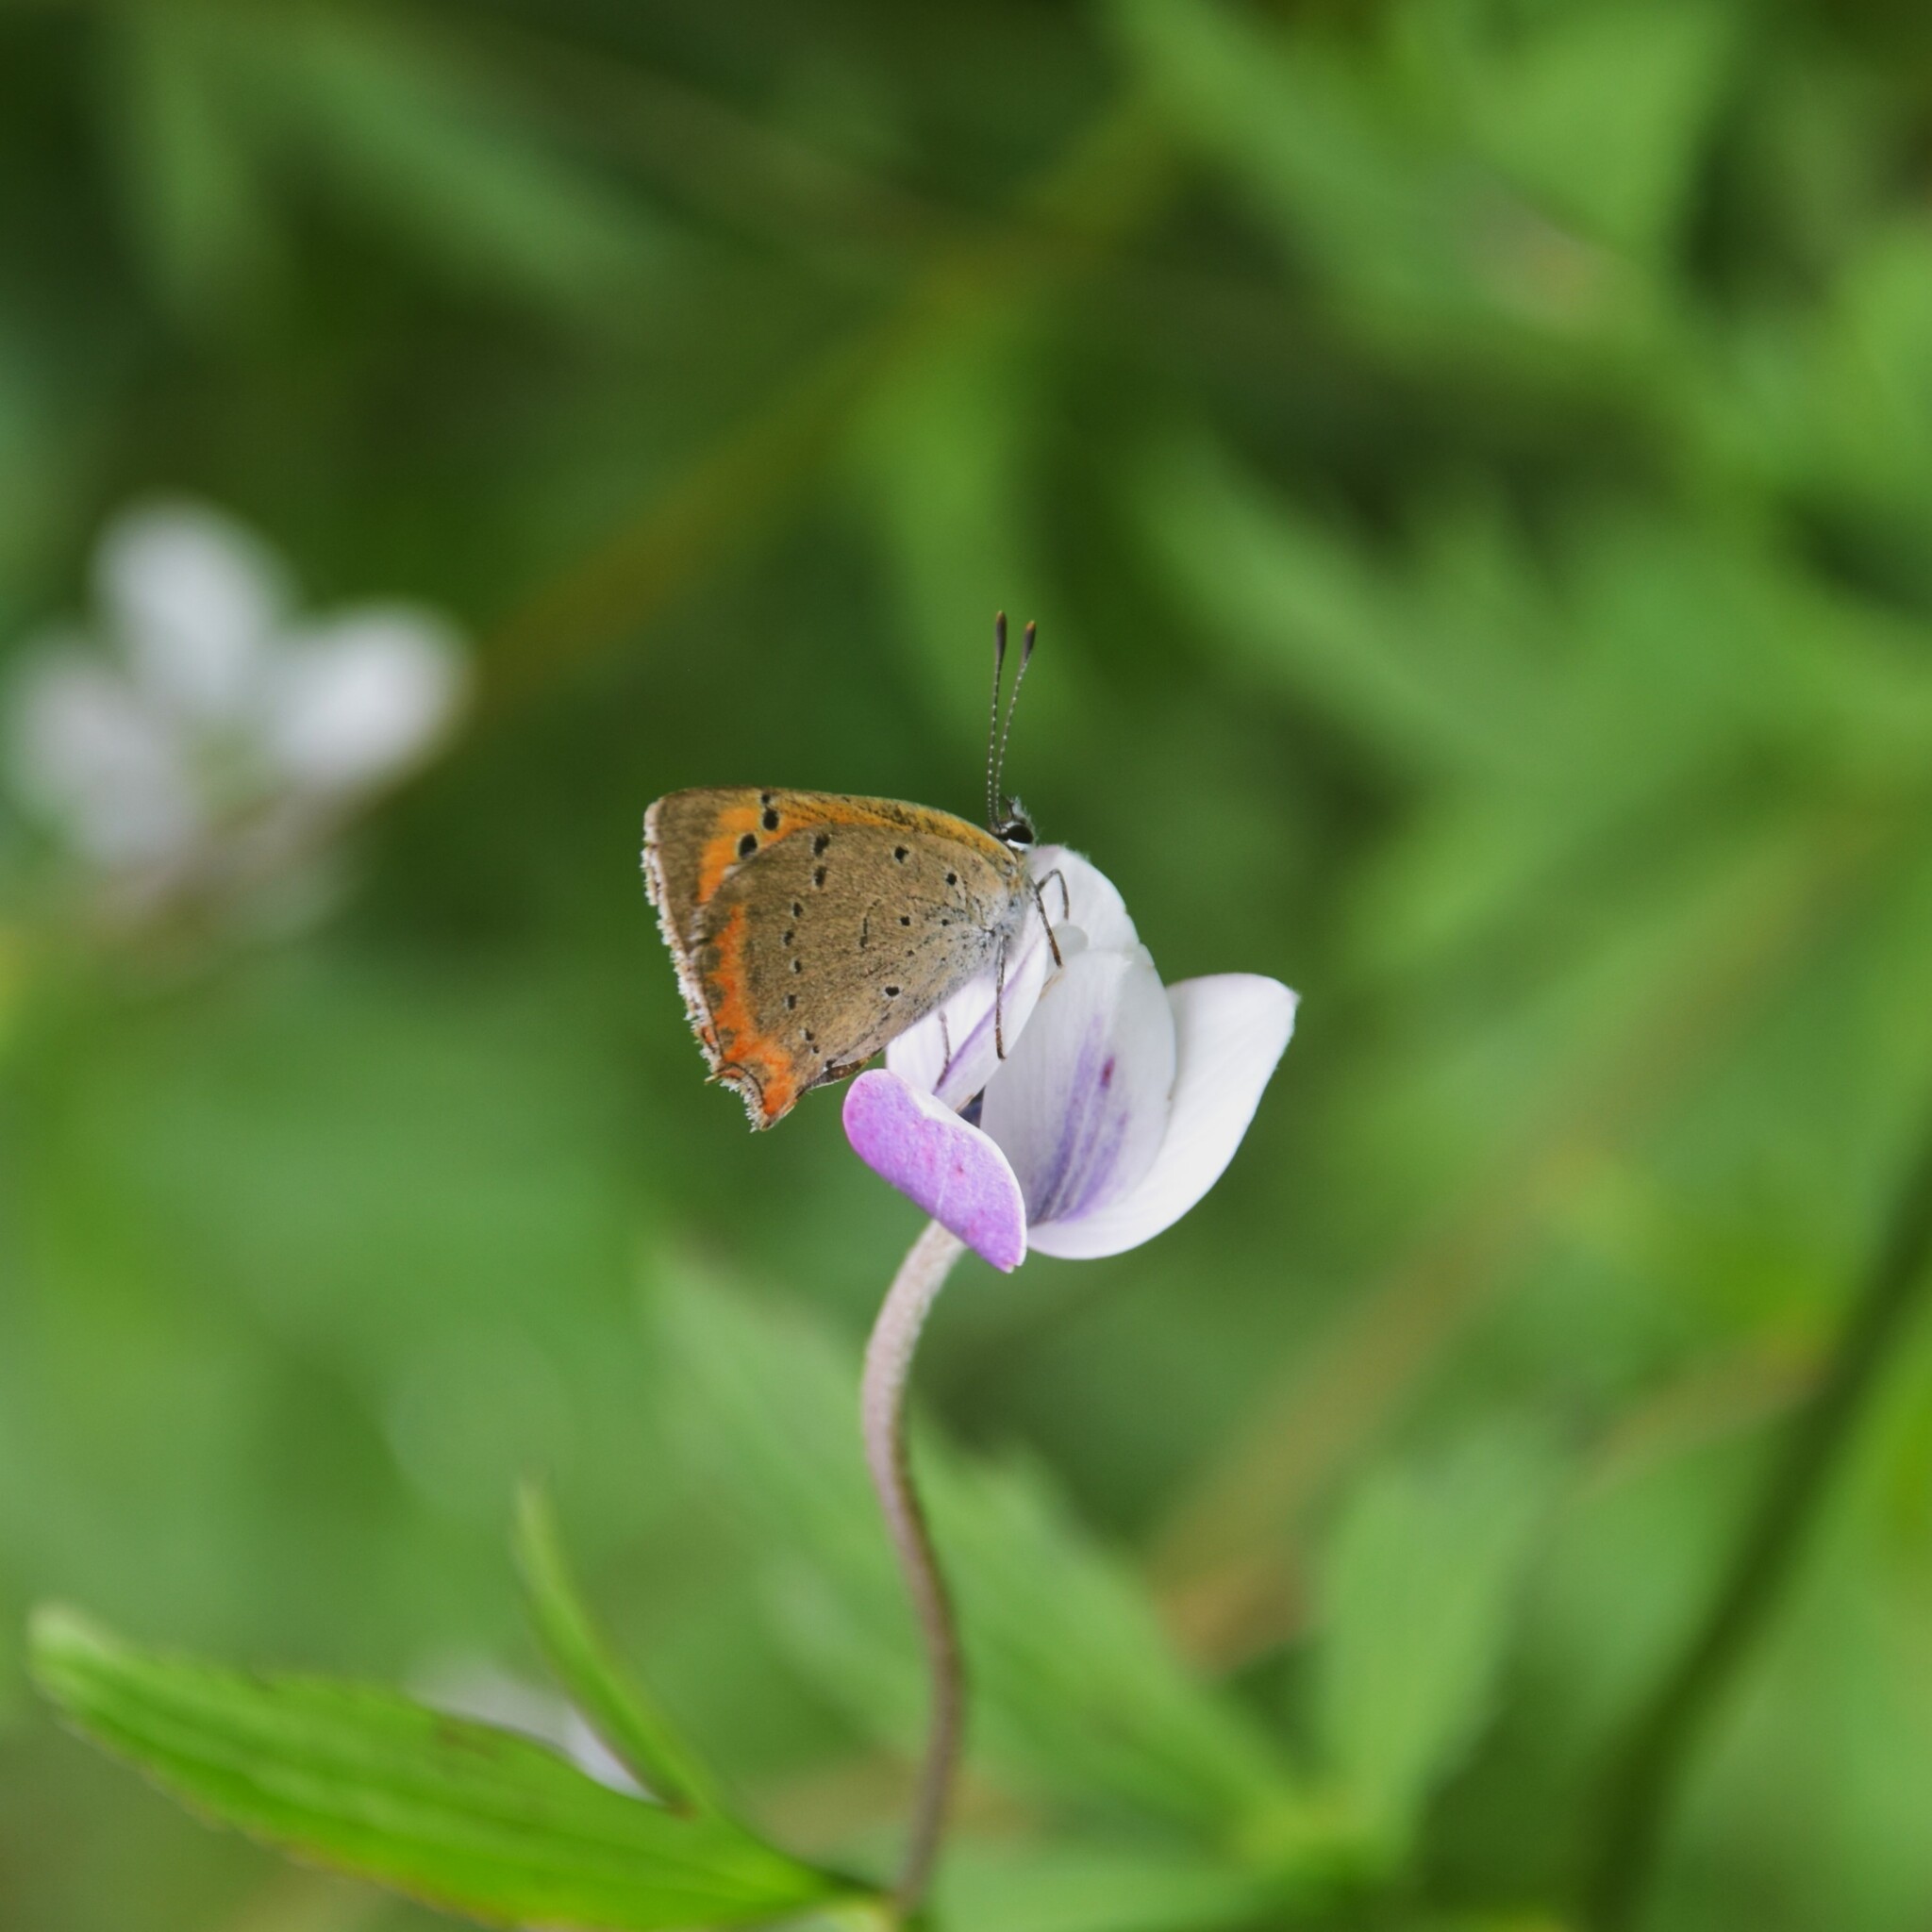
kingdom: Animalia
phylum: Arthropoda
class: Insecta
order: Lepidoptera
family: Lycaenidae
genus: Lycaena
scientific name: Lycaena phlaeas
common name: Small copper
